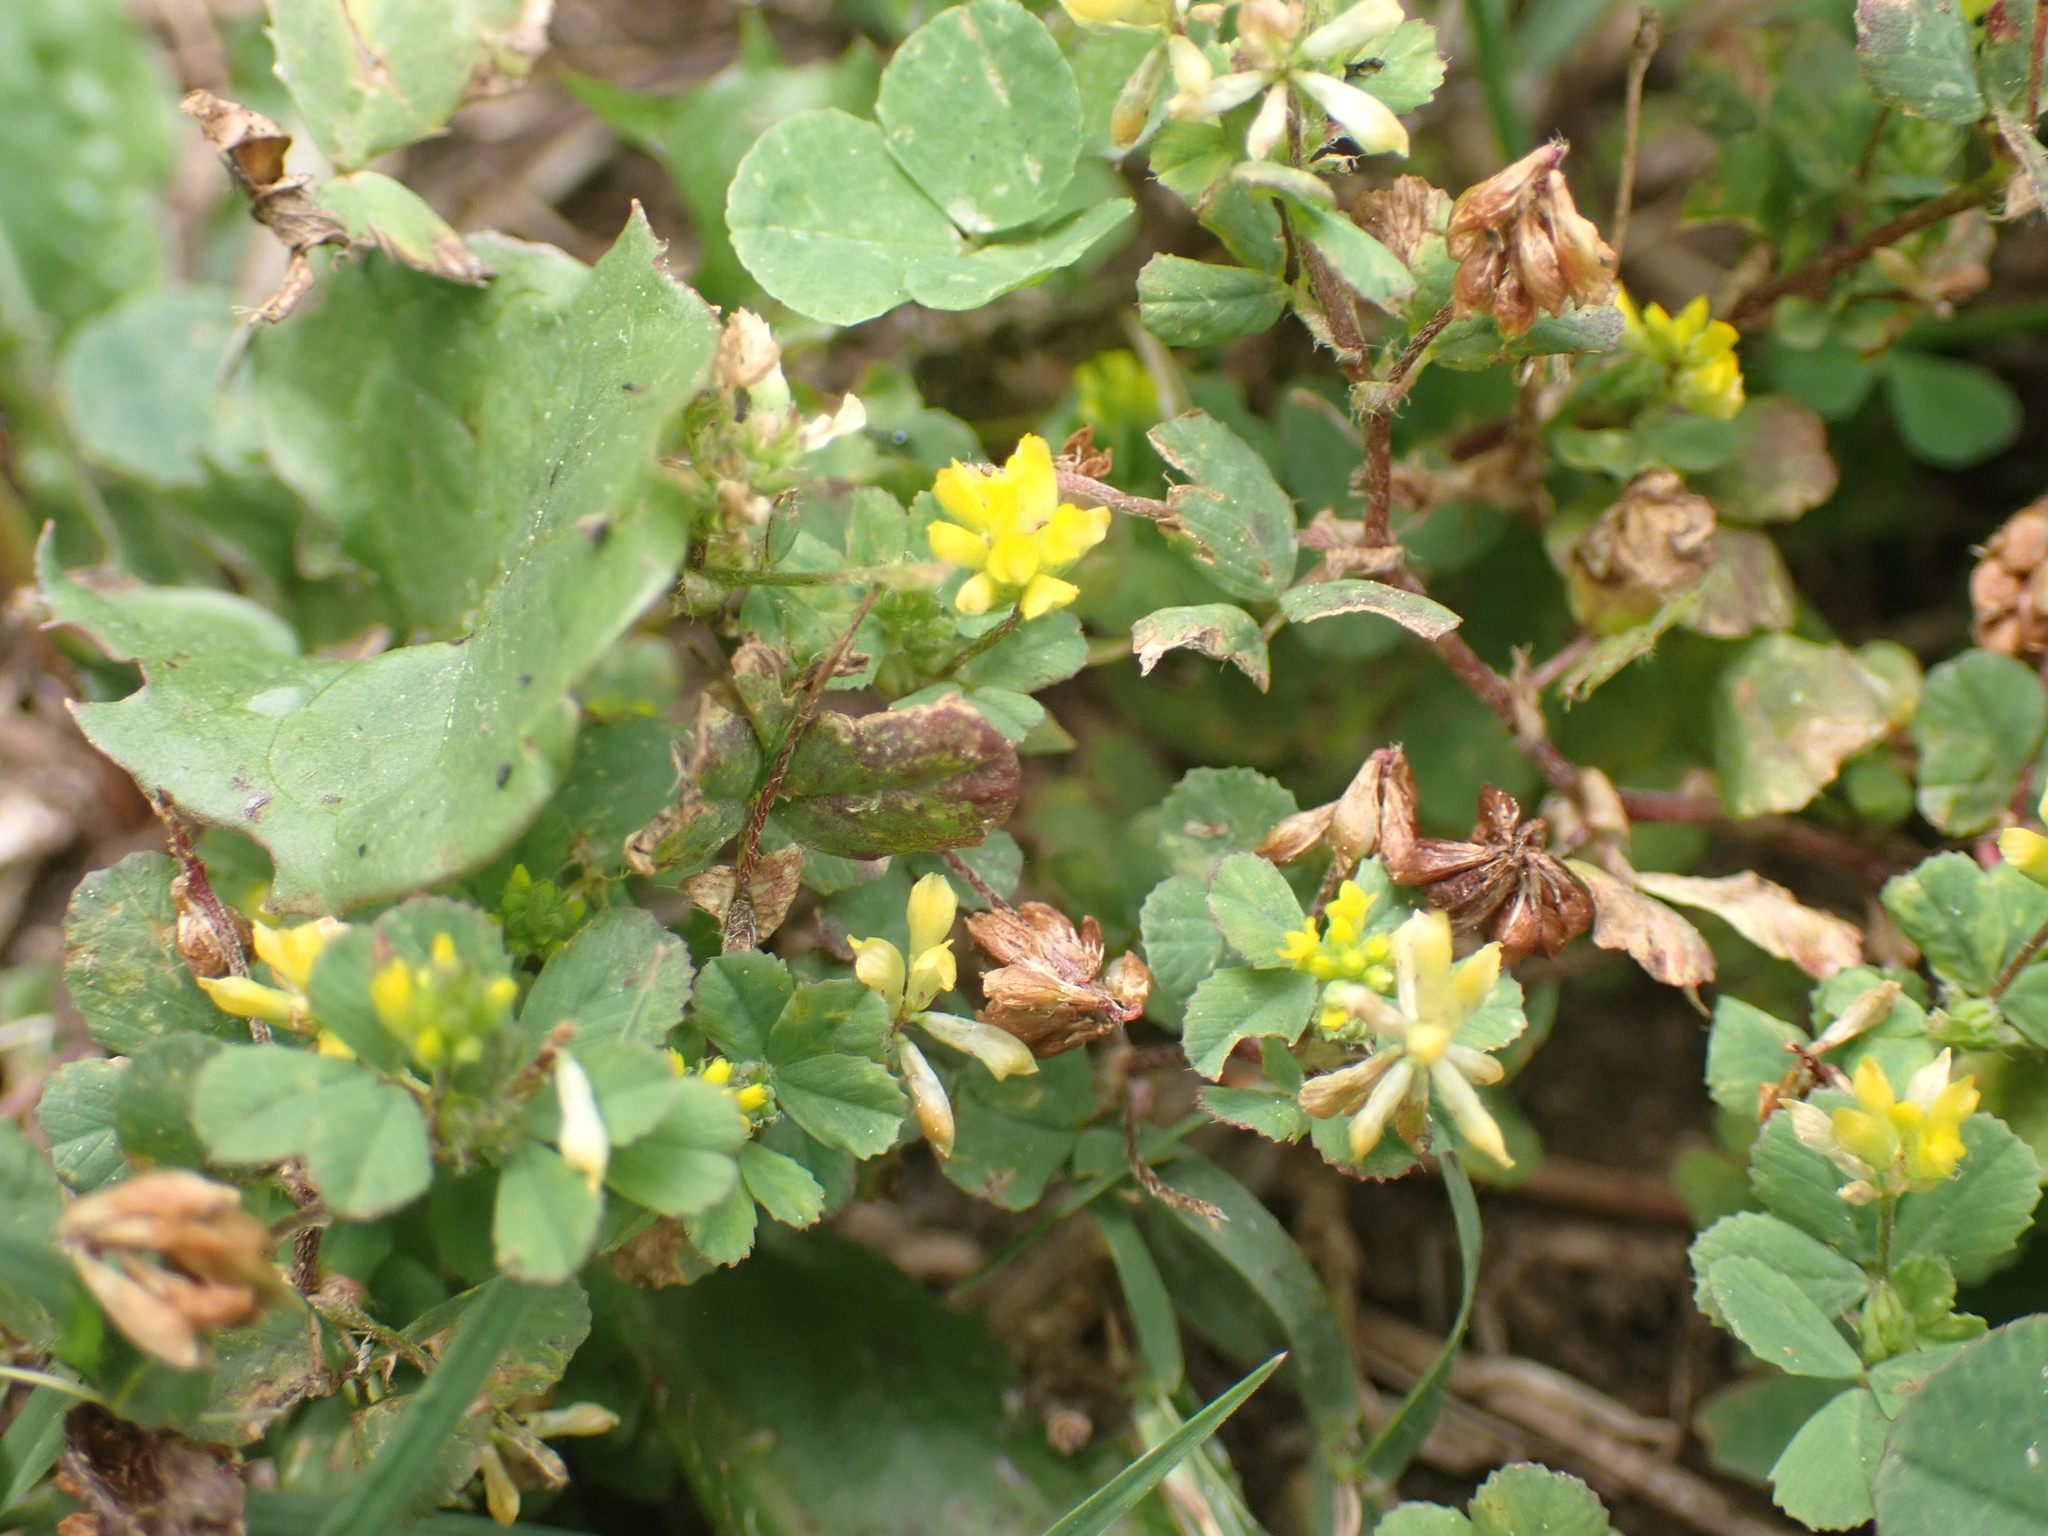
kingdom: Plantae
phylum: Tracheophyta
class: Magnoliopsida
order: Fabales
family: Fabaceae
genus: Trifolium
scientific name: Trifolium dubium
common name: Suckling clover
